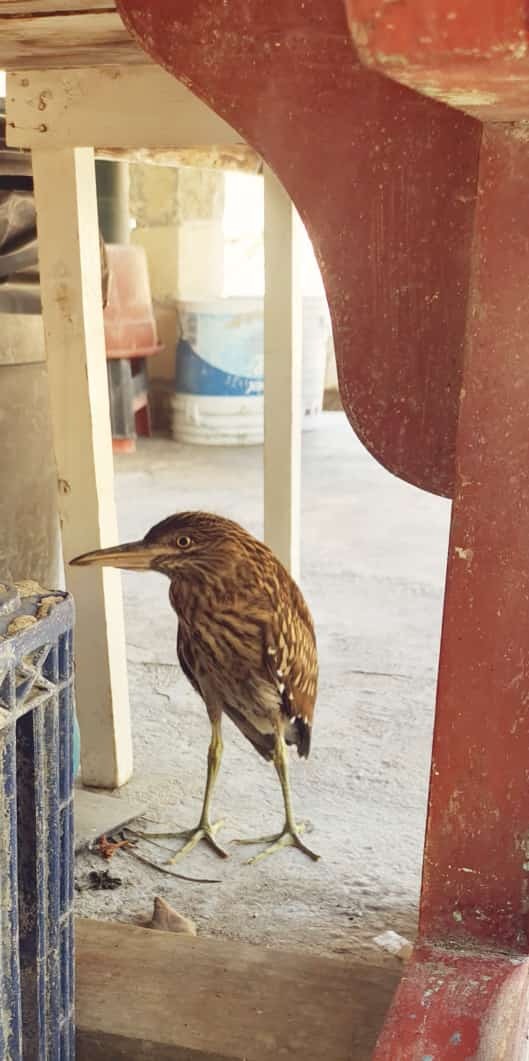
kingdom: Animalia
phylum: Chordata
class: Aves
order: Pelecaniformes
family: Ardeidae
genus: Nycticorax
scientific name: Nycticorax nycticorax
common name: Black-crowned night heron
